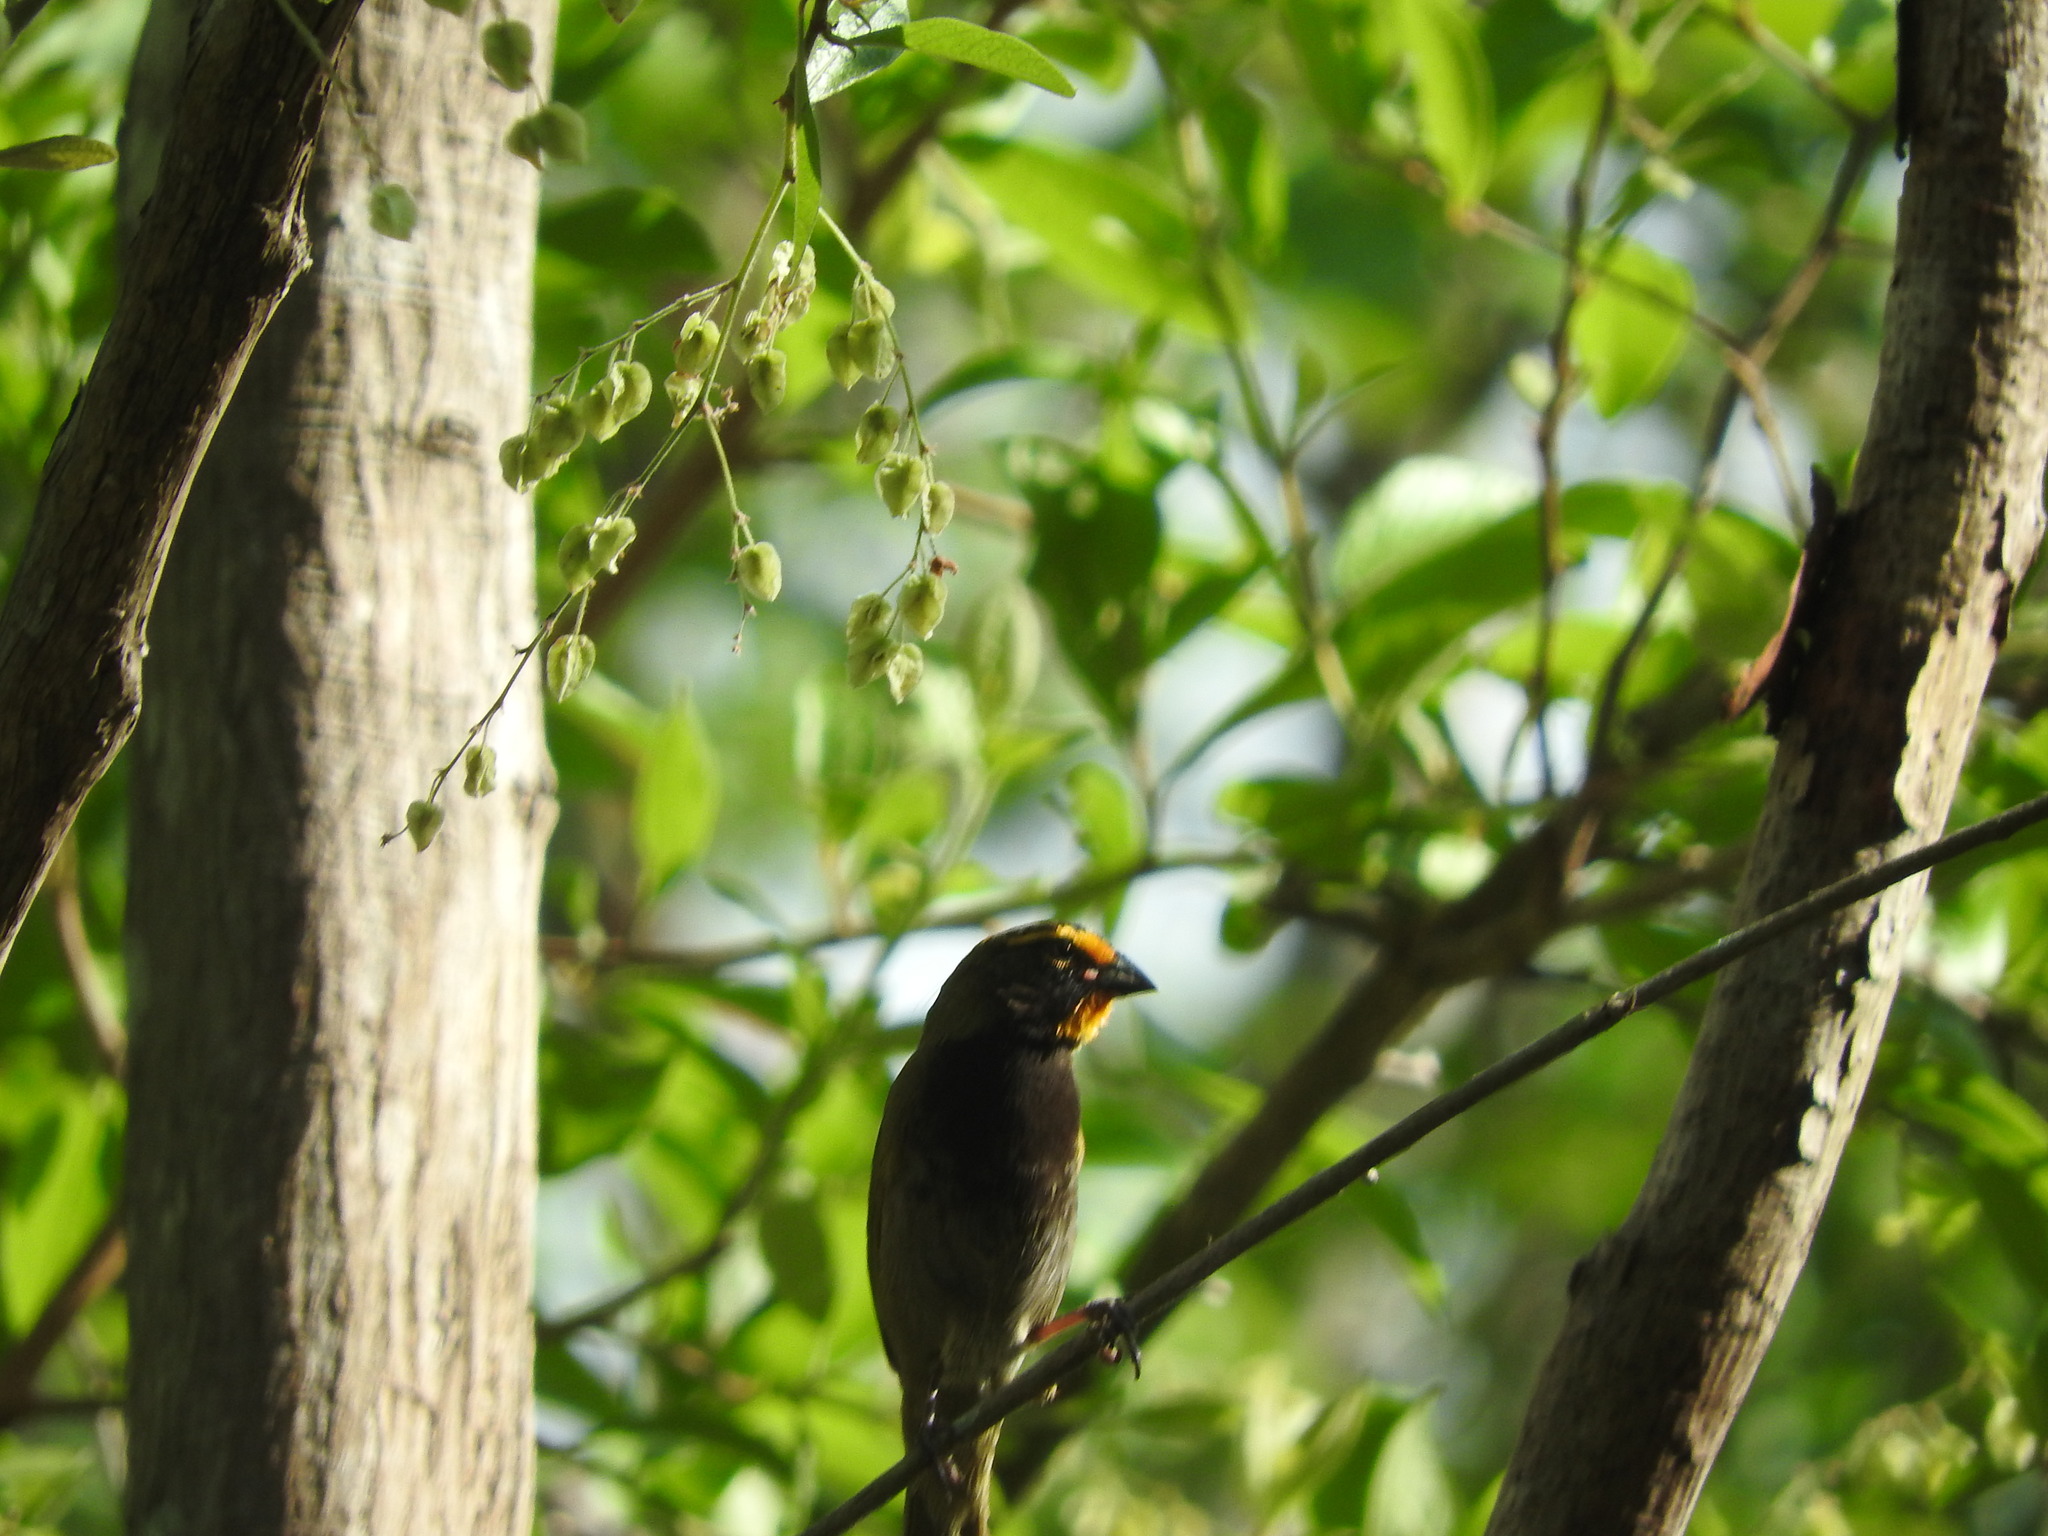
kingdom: Animalia
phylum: Chordata
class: Aves
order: Passeriformes
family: Thraupidae
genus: Tiaris
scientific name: Tiaris olivaceus
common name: Yellow-faced grassquit
